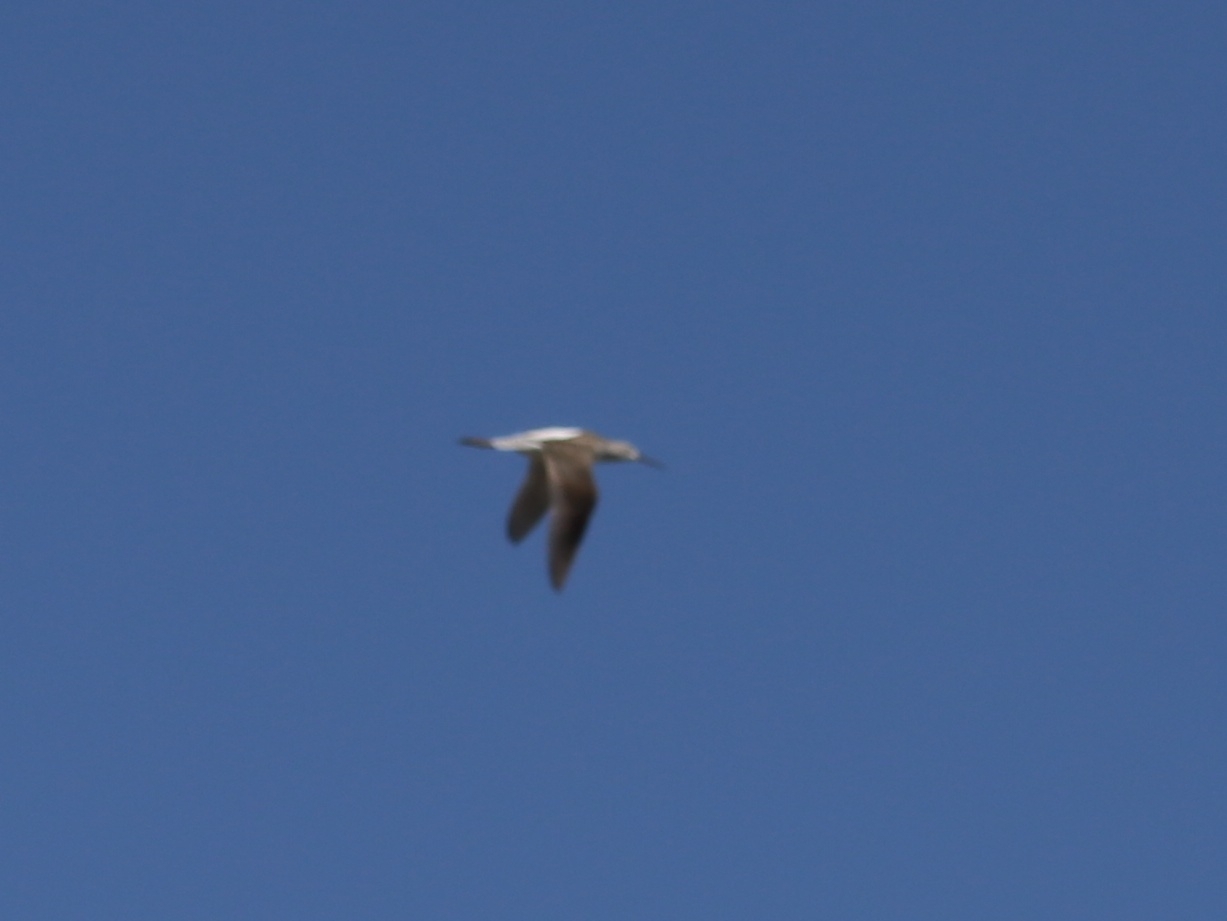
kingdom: Animalia
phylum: Chordata
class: Aves
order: Charadriiformes
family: Scolopacidae
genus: Tringa
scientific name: Tringa stagnatilis
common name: Marsh sandpiper
